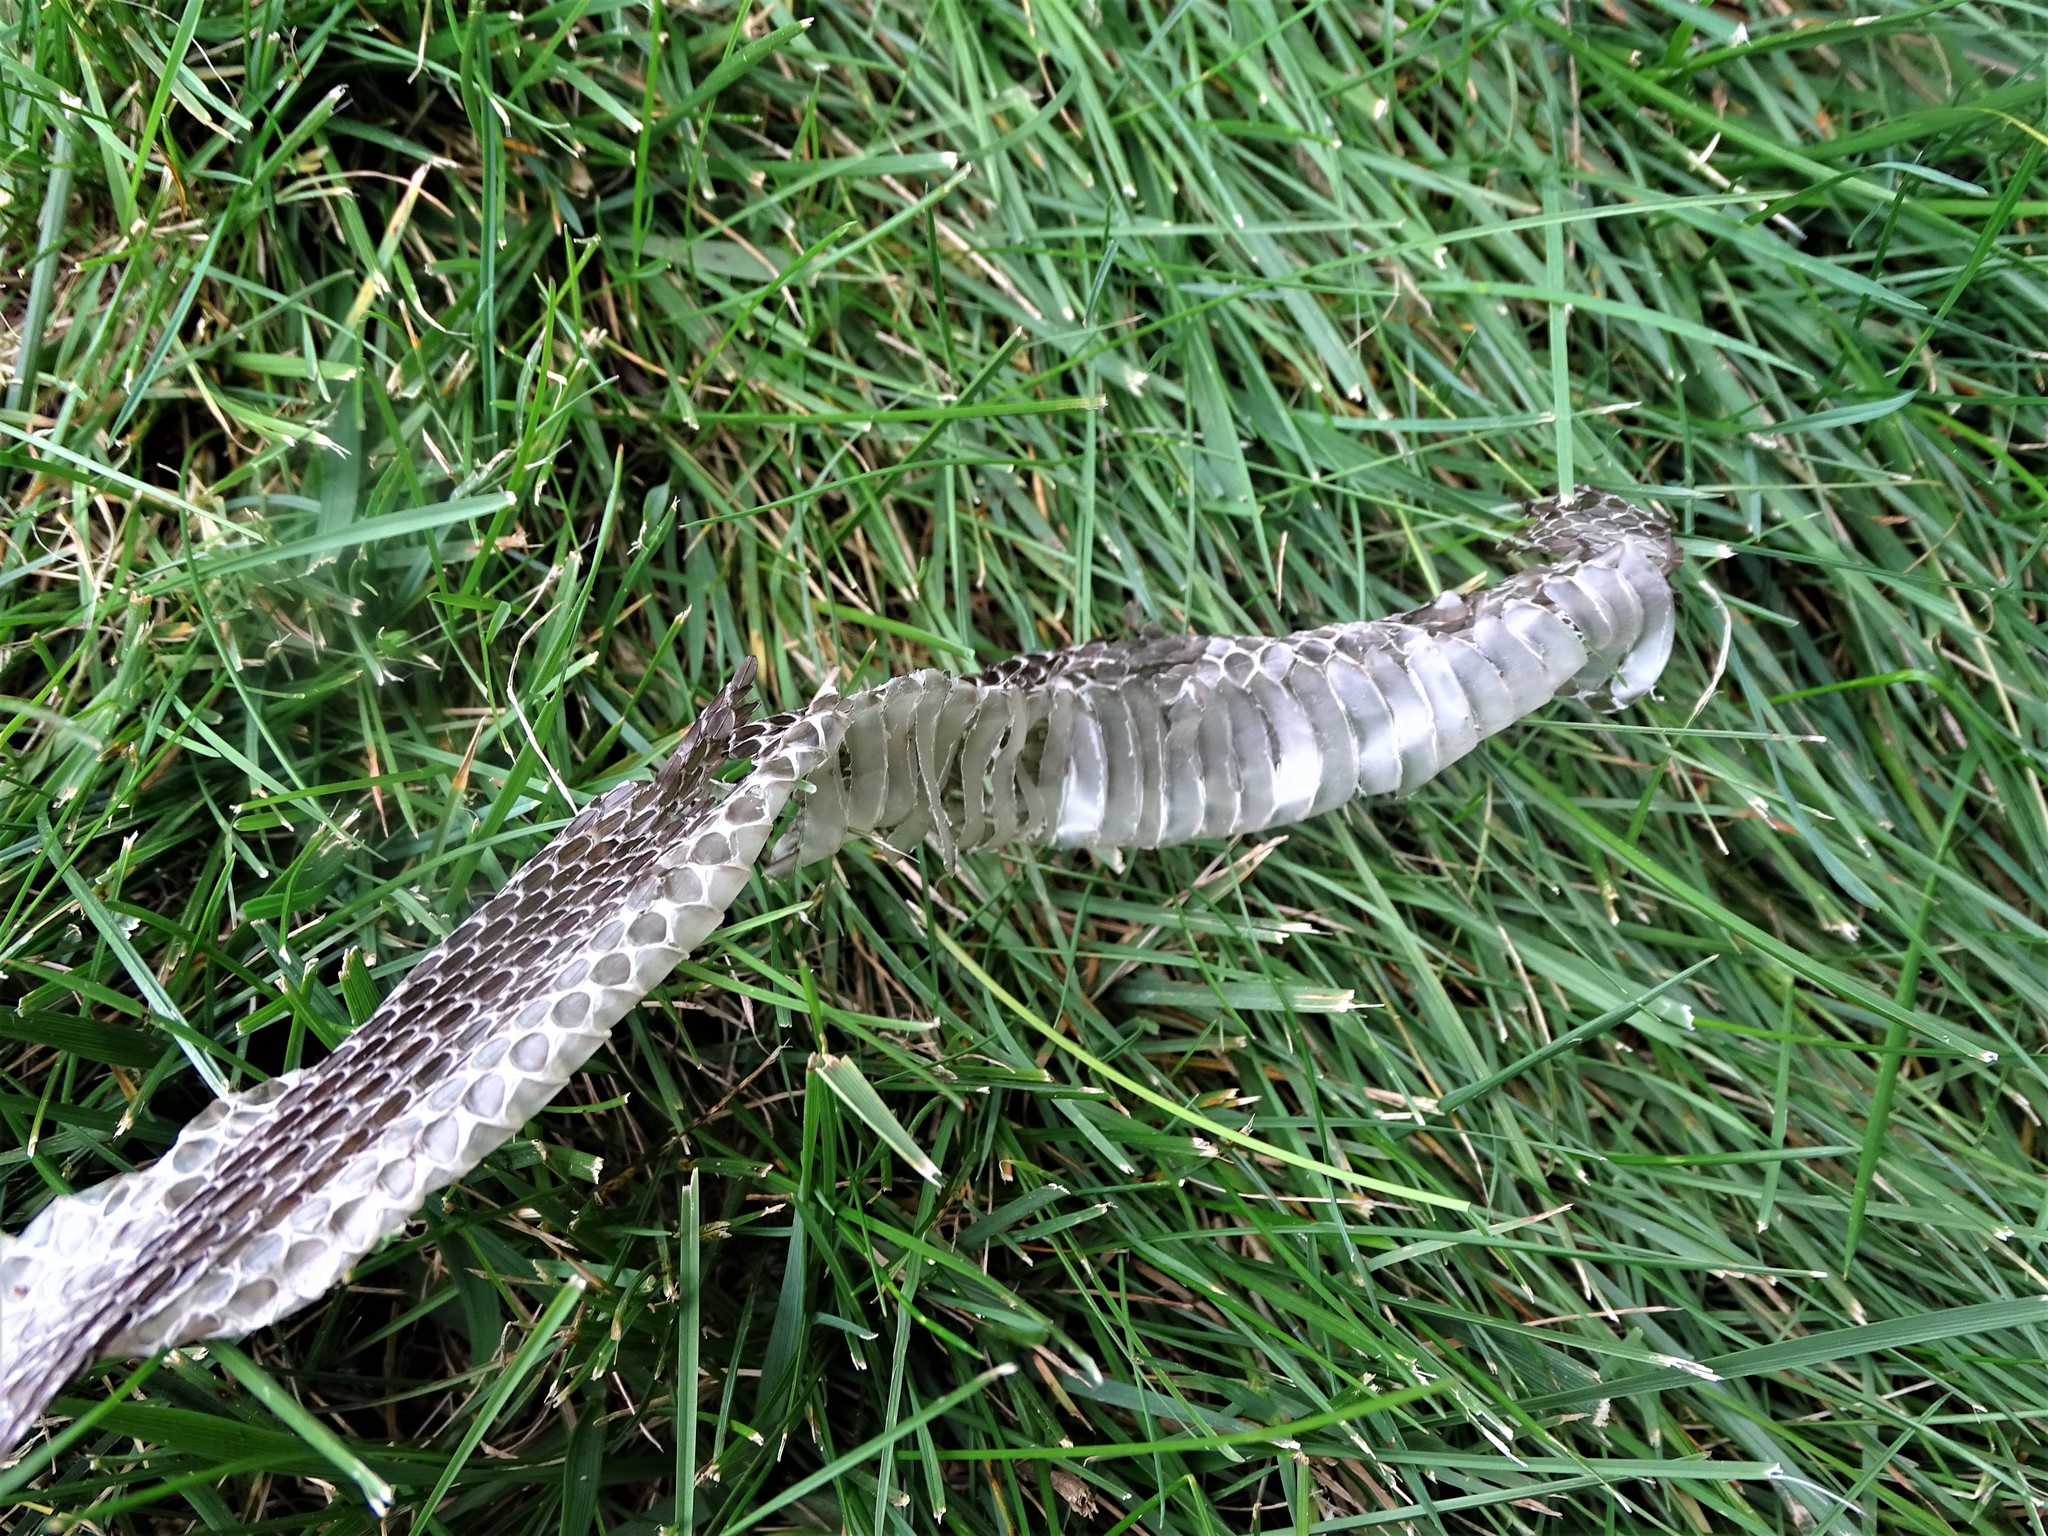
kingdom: Animalia
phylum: Chordata
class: Squamata
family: Colubridae
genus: Thamnophis
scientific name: Thamnophis sirtalis
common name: Common garter snake
